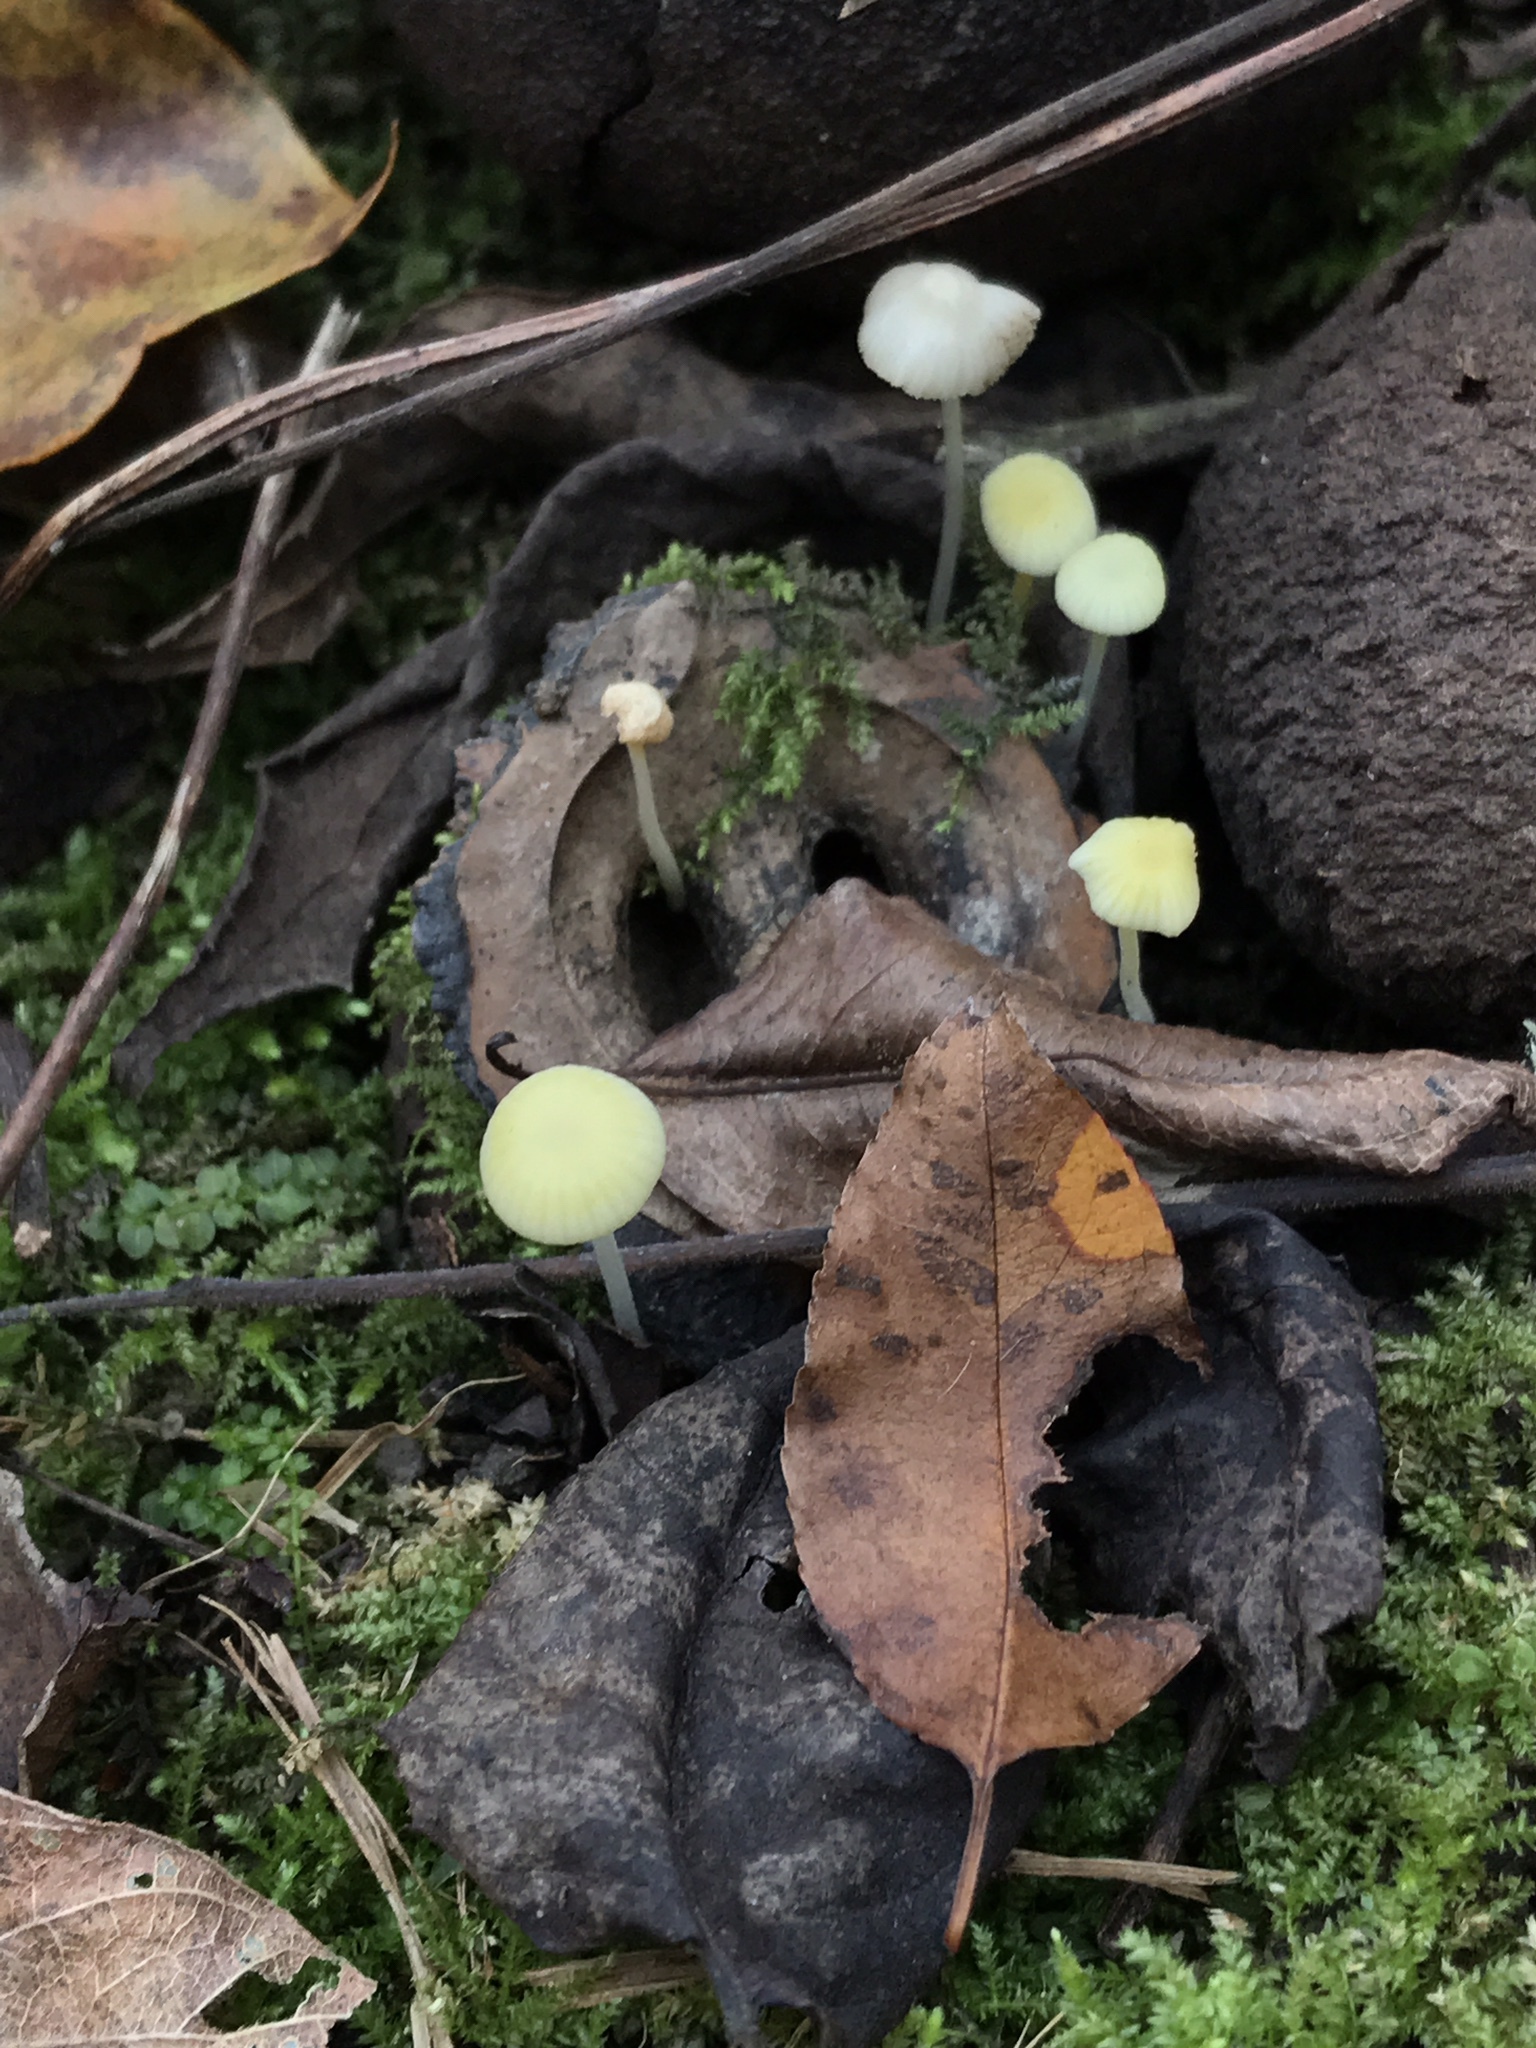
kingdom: Fungi
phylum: Basidiomycota
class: Agaricomycetes
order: Agaricales
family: Mycenaceae
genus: Mycena
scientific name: Mycena crocea
